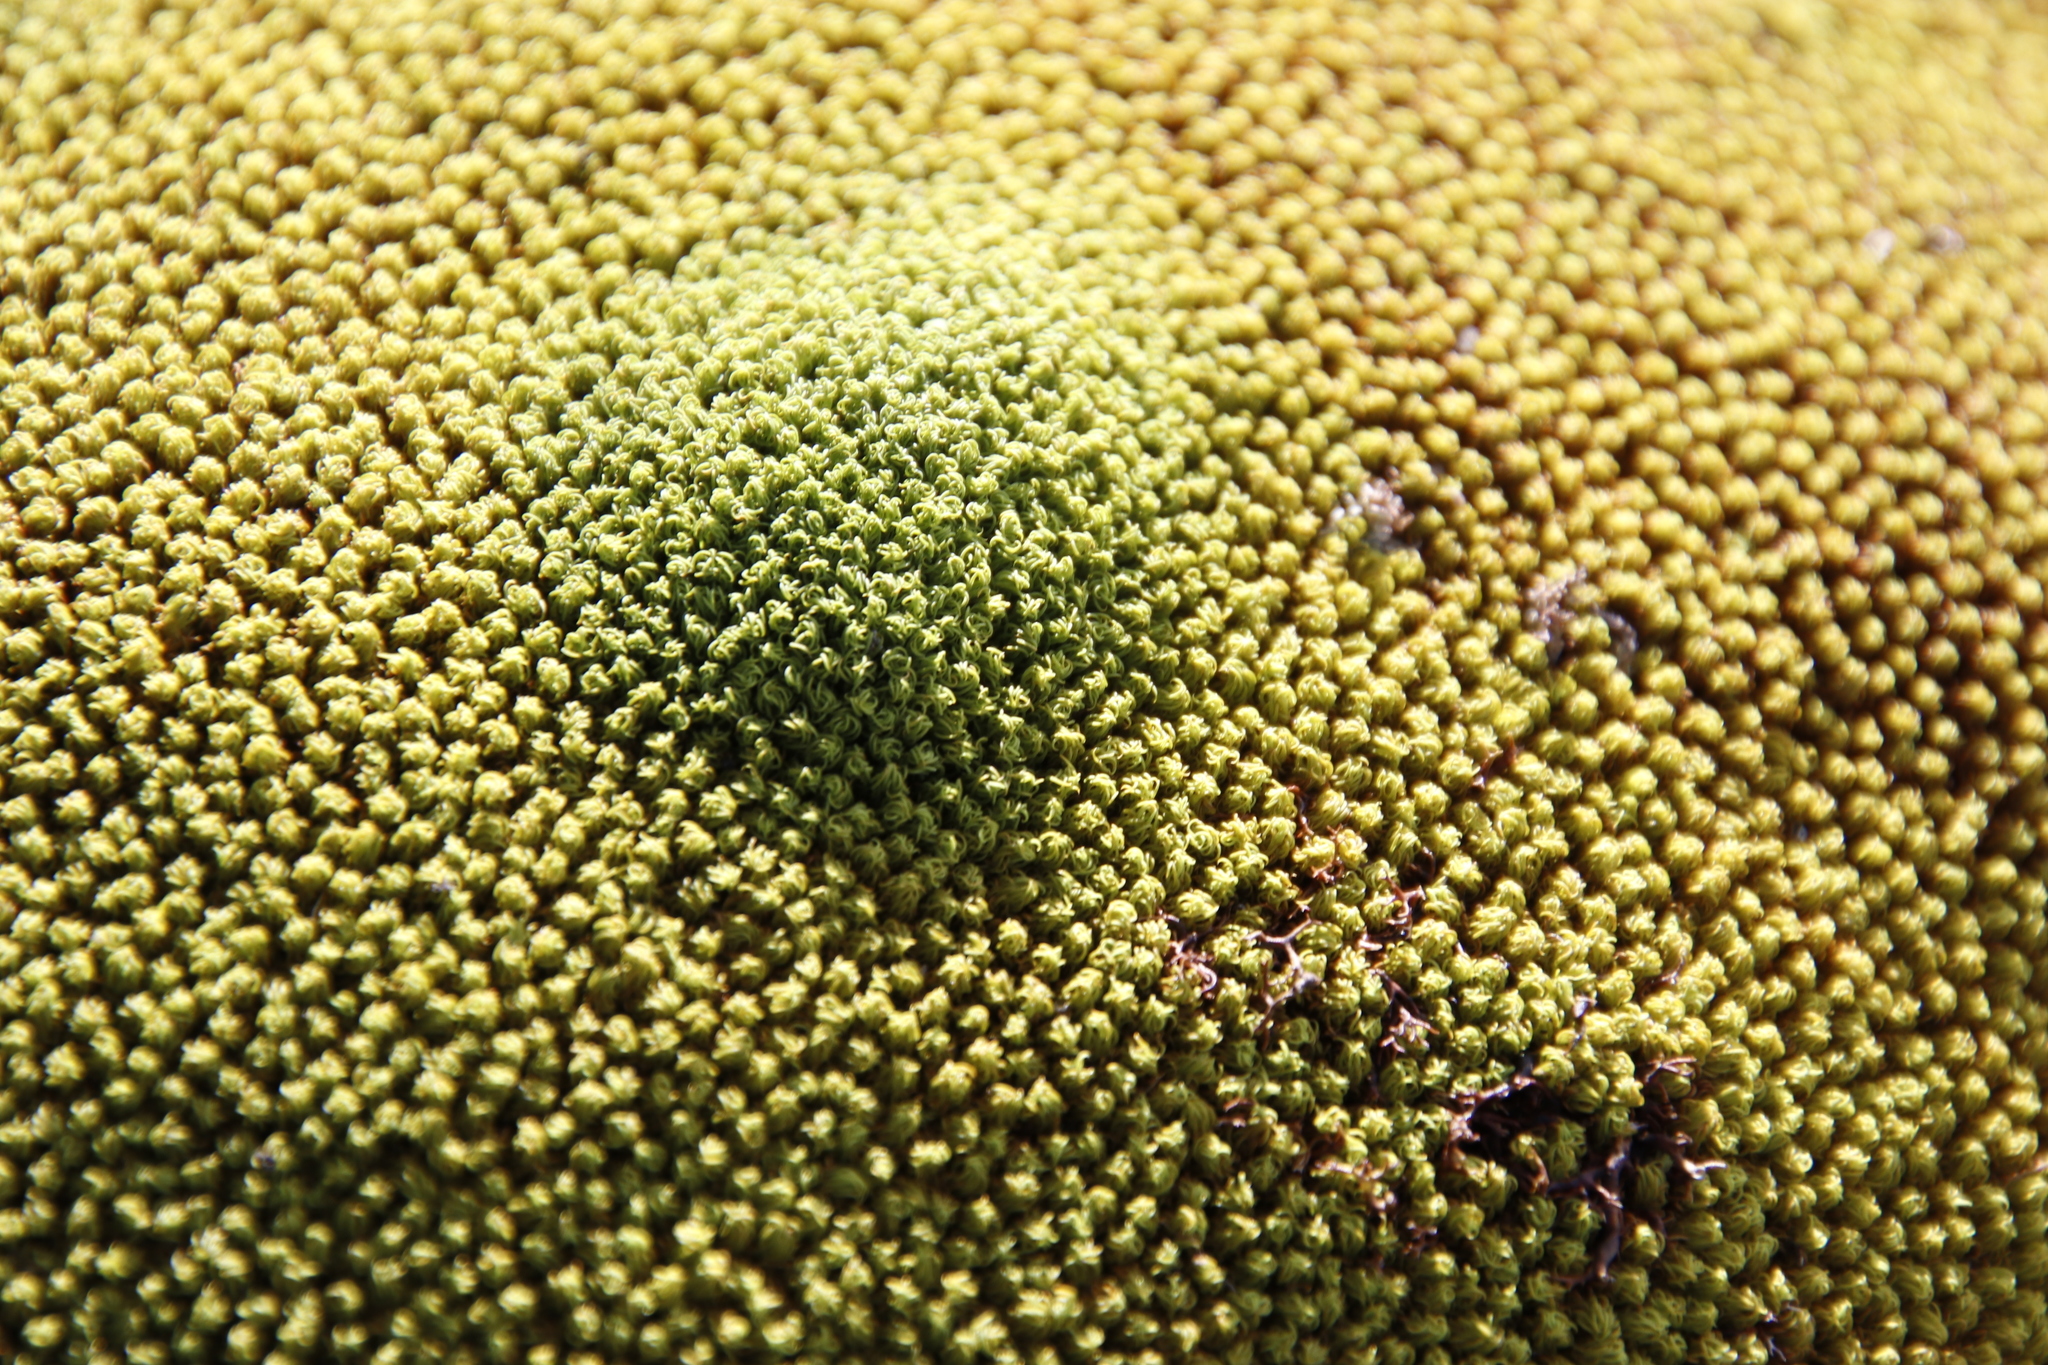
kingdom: Plantae
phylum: Bryophyta
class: Bryopsida
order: Dicranales
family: Hypodontiaceae
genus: Hypodontium
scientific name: Hypodontium pomiforme
